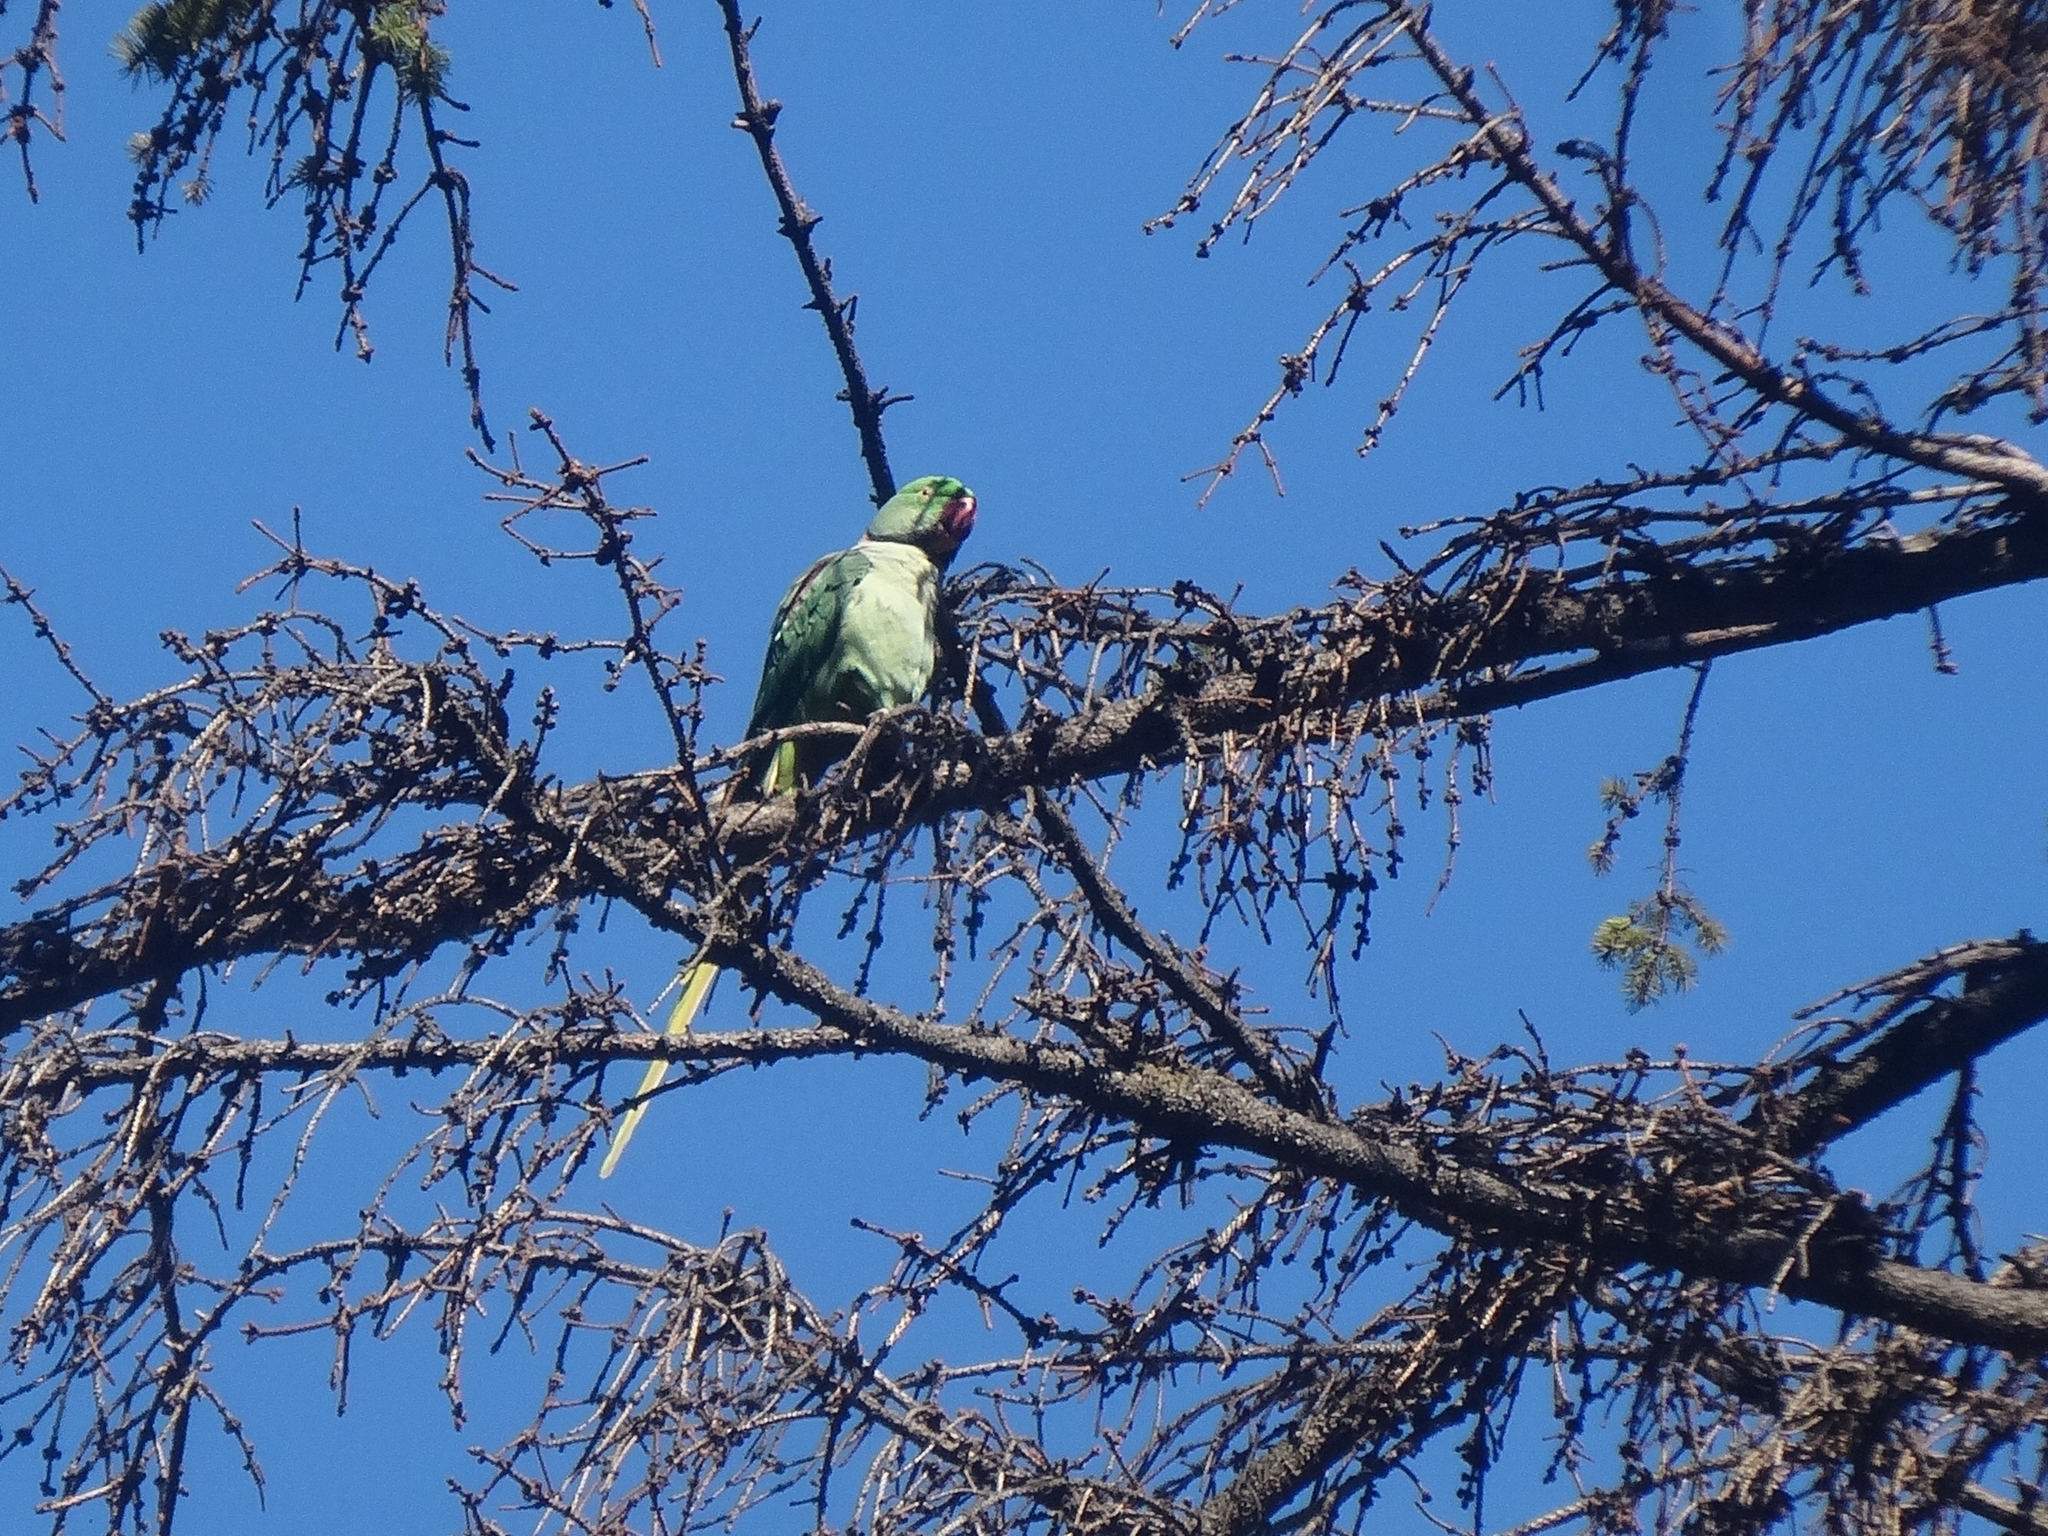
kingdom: Animalia
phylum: Chordata
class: Aves
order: Psittaciformes
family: Psittacidae
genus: Psittacula
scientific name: Psittacula eupatria
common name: Alexandrine parakeet
